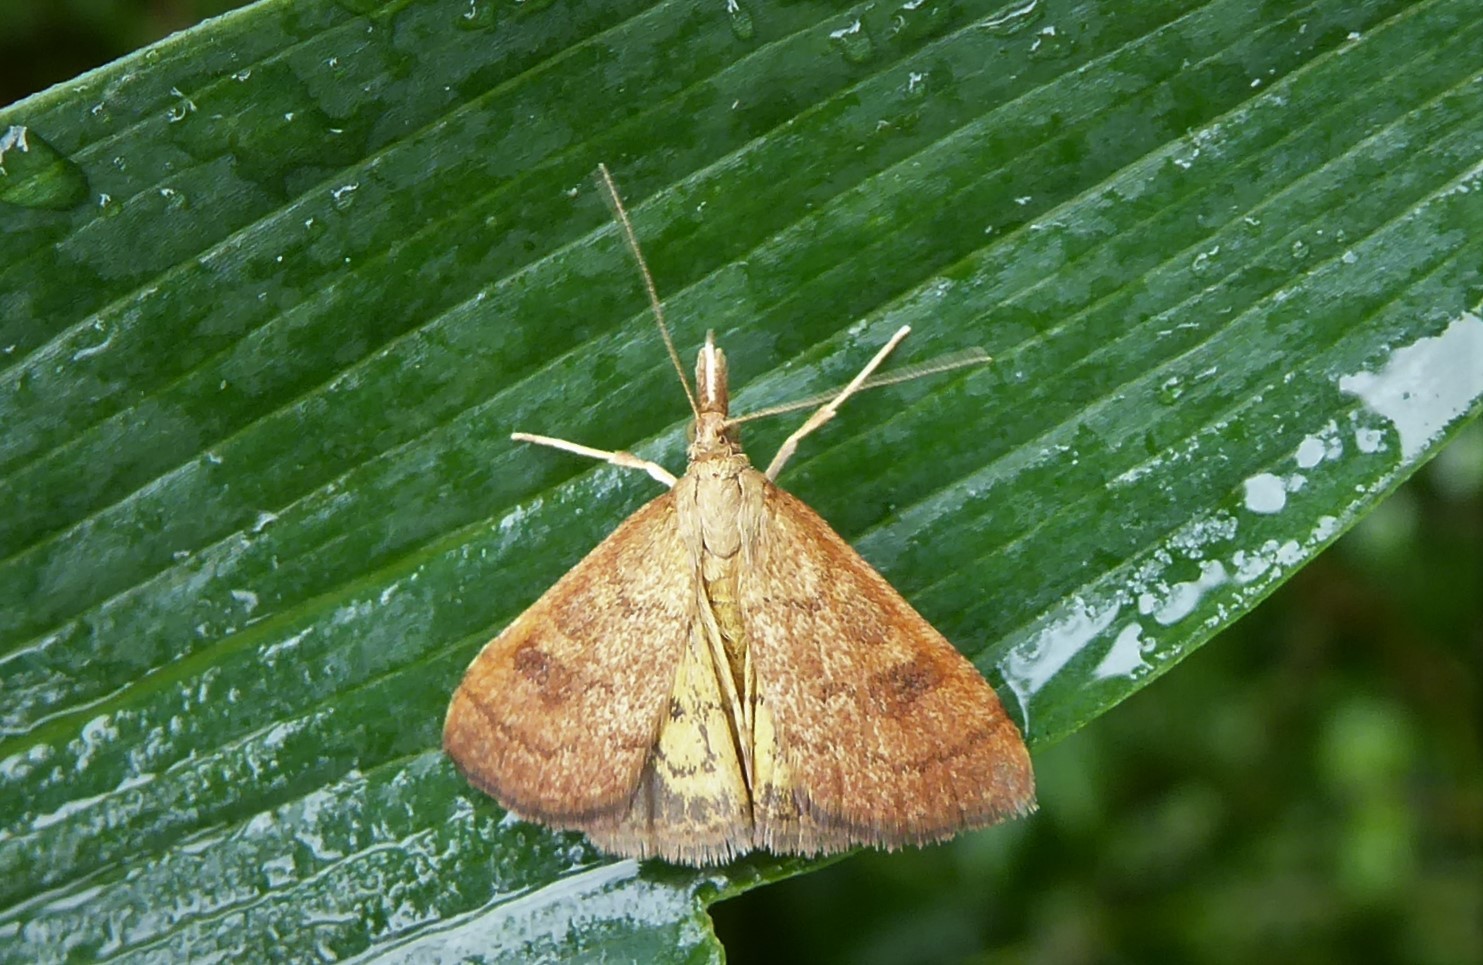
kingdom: Animalia
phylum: Arthropoda
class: Insecta
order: Lepidoptera
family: Crambidae
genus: Udea
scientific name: Udea Mnesictena flavidalis
